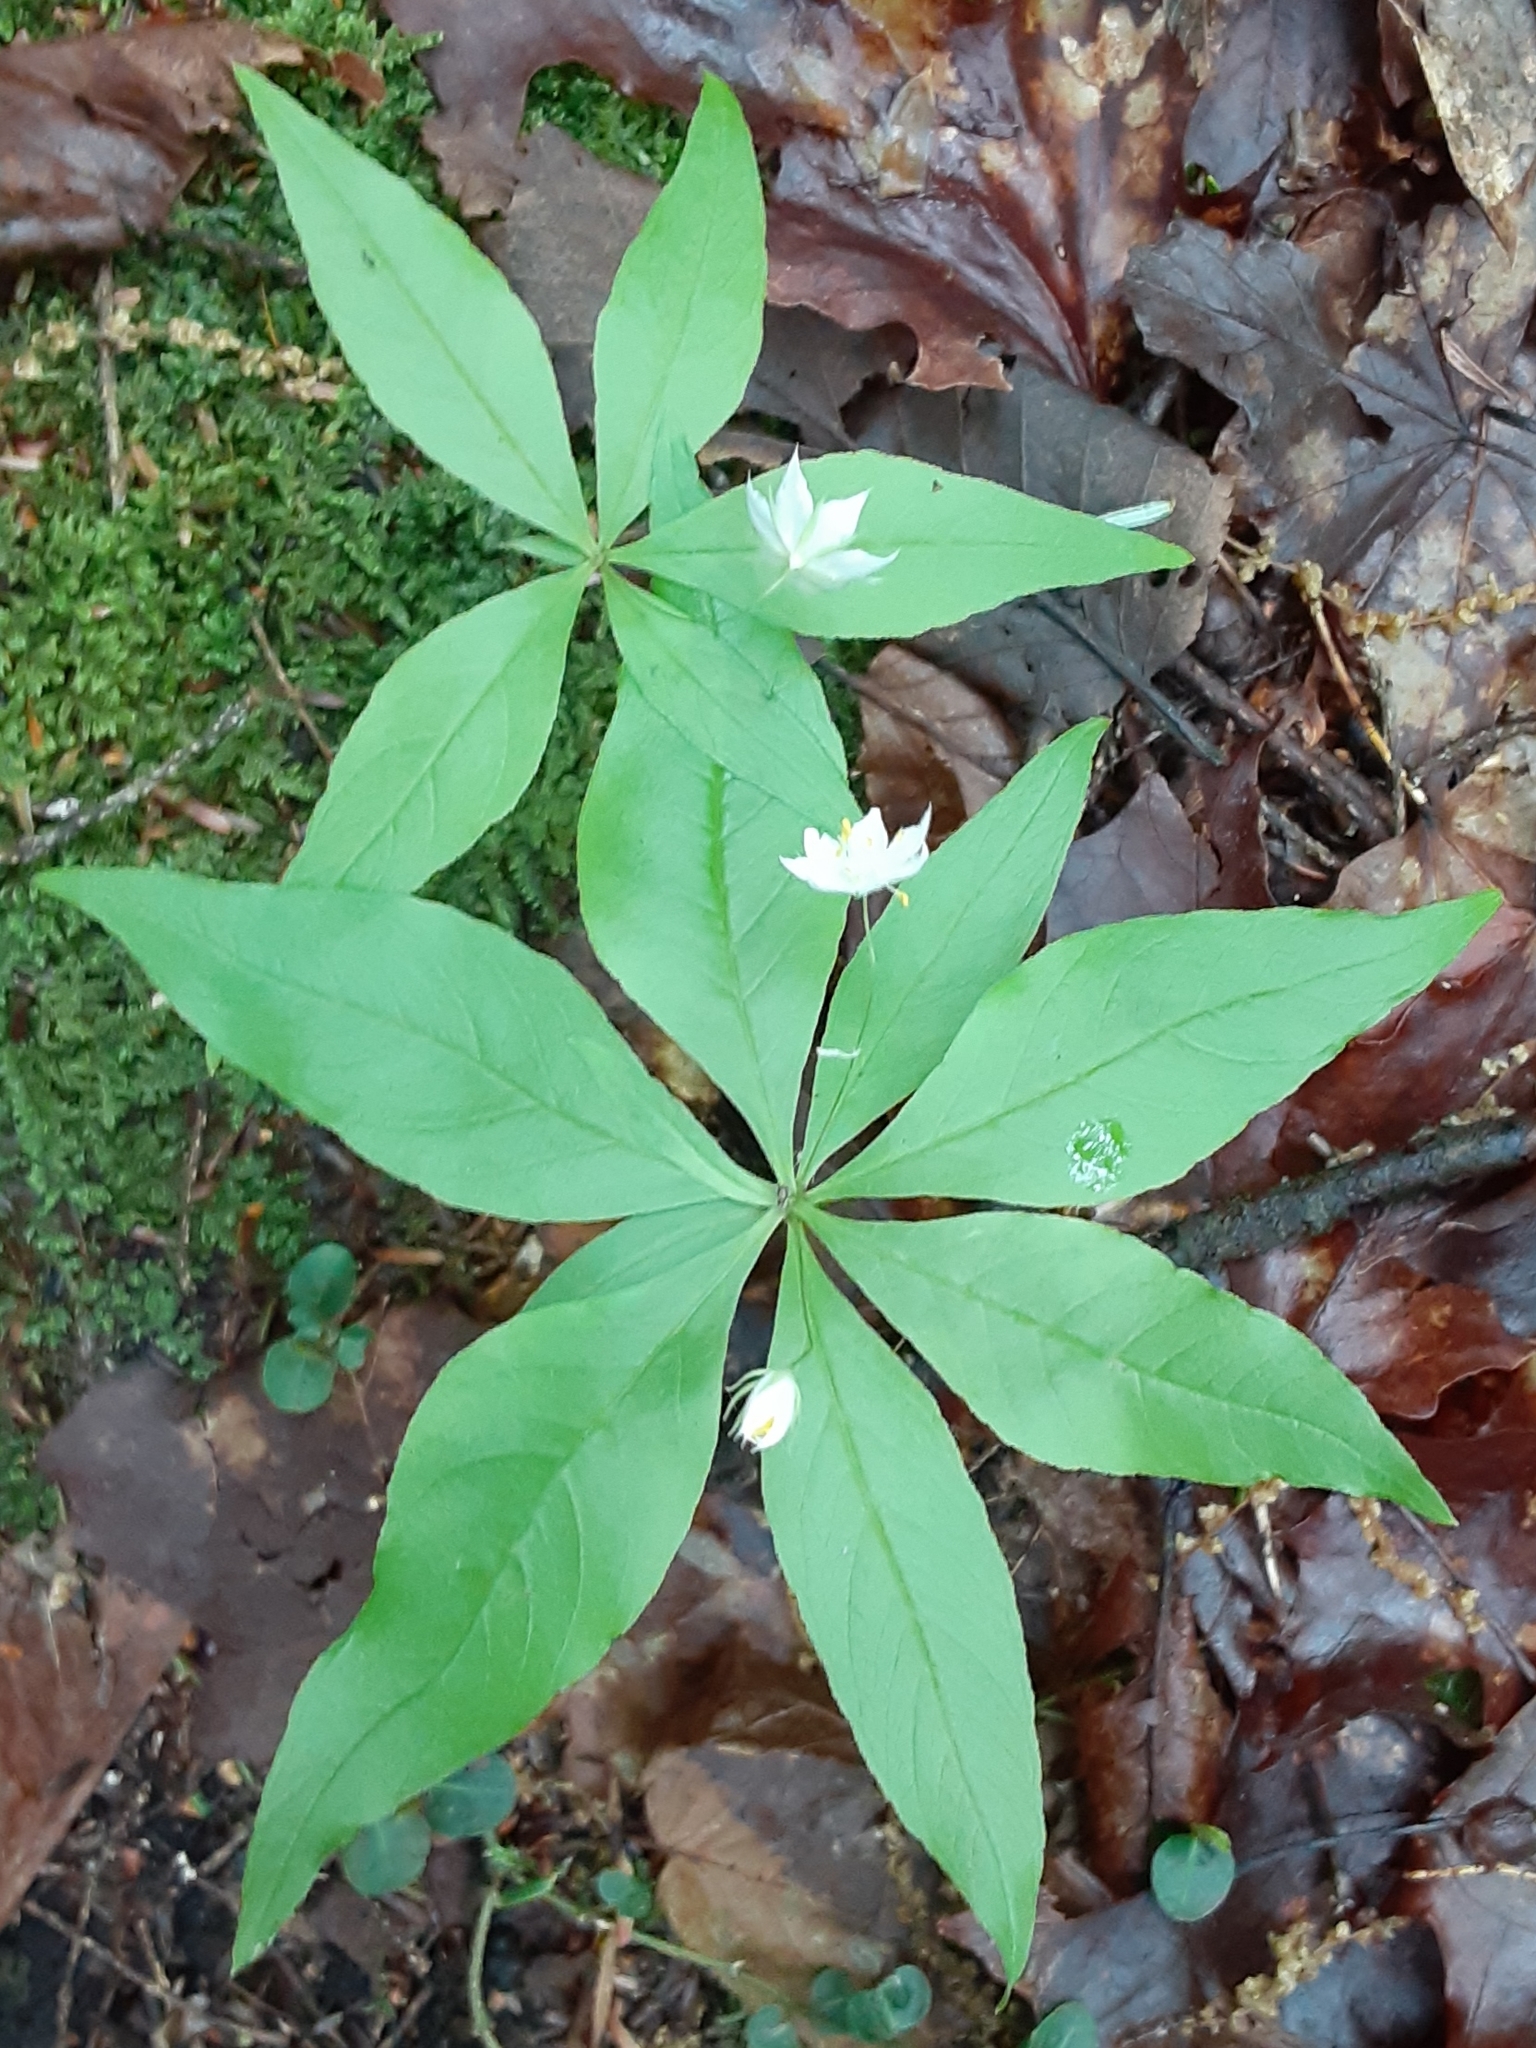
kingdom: Plantae
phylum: Tracheophyta
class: Magnoliopsida
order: Ericales
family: Primulaceae
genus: Lysimachia
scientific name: Lysimachia borealis
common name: American starflower
